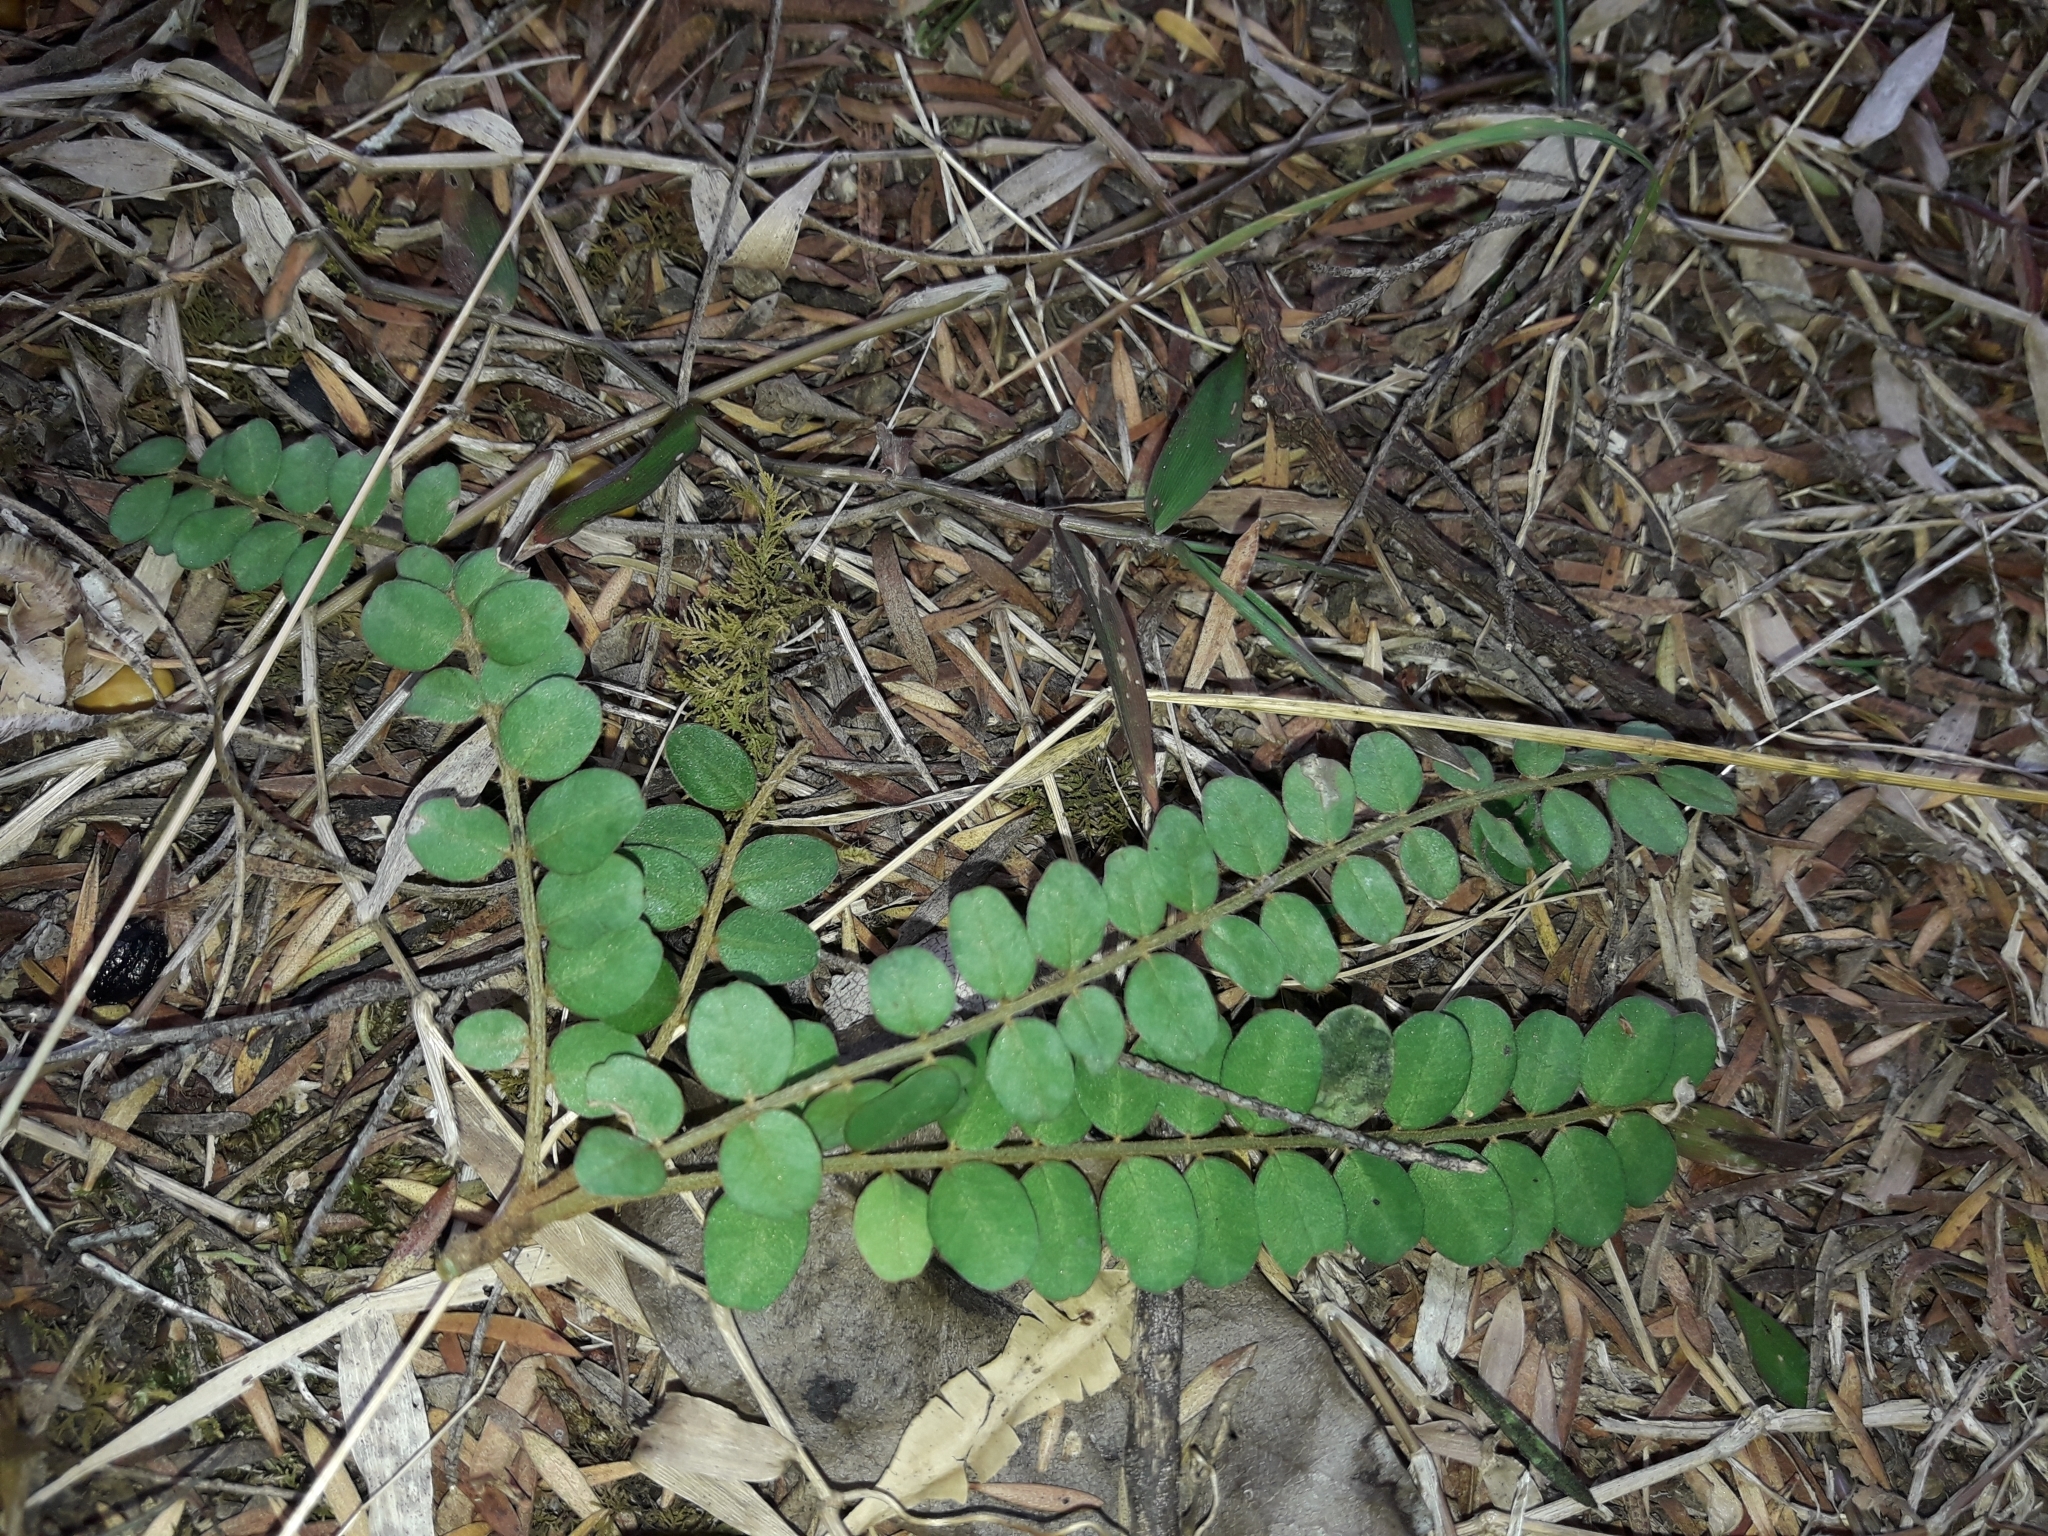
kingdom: Plantae
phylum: Tracheophyta
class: Magnoliopsida
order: Fabales
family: Fabaceae
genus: Sophora
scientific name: Sophora chathamica
